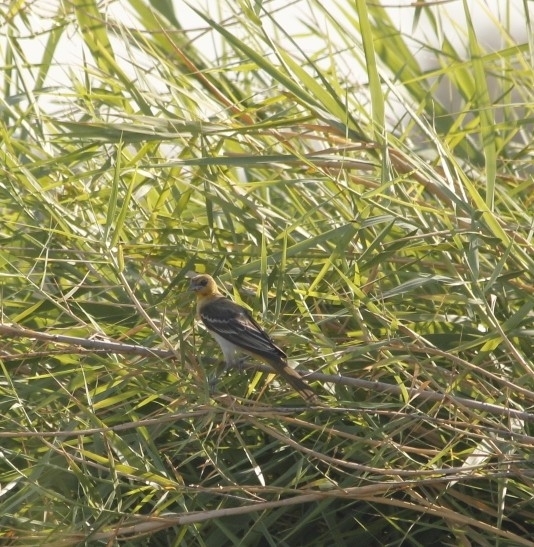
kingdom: Animalia
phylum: Chordata
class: Aves
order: Passeriformes
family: Icteridae
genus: Icterus
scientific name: Icterus bullockii
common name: Bullock's oriole
